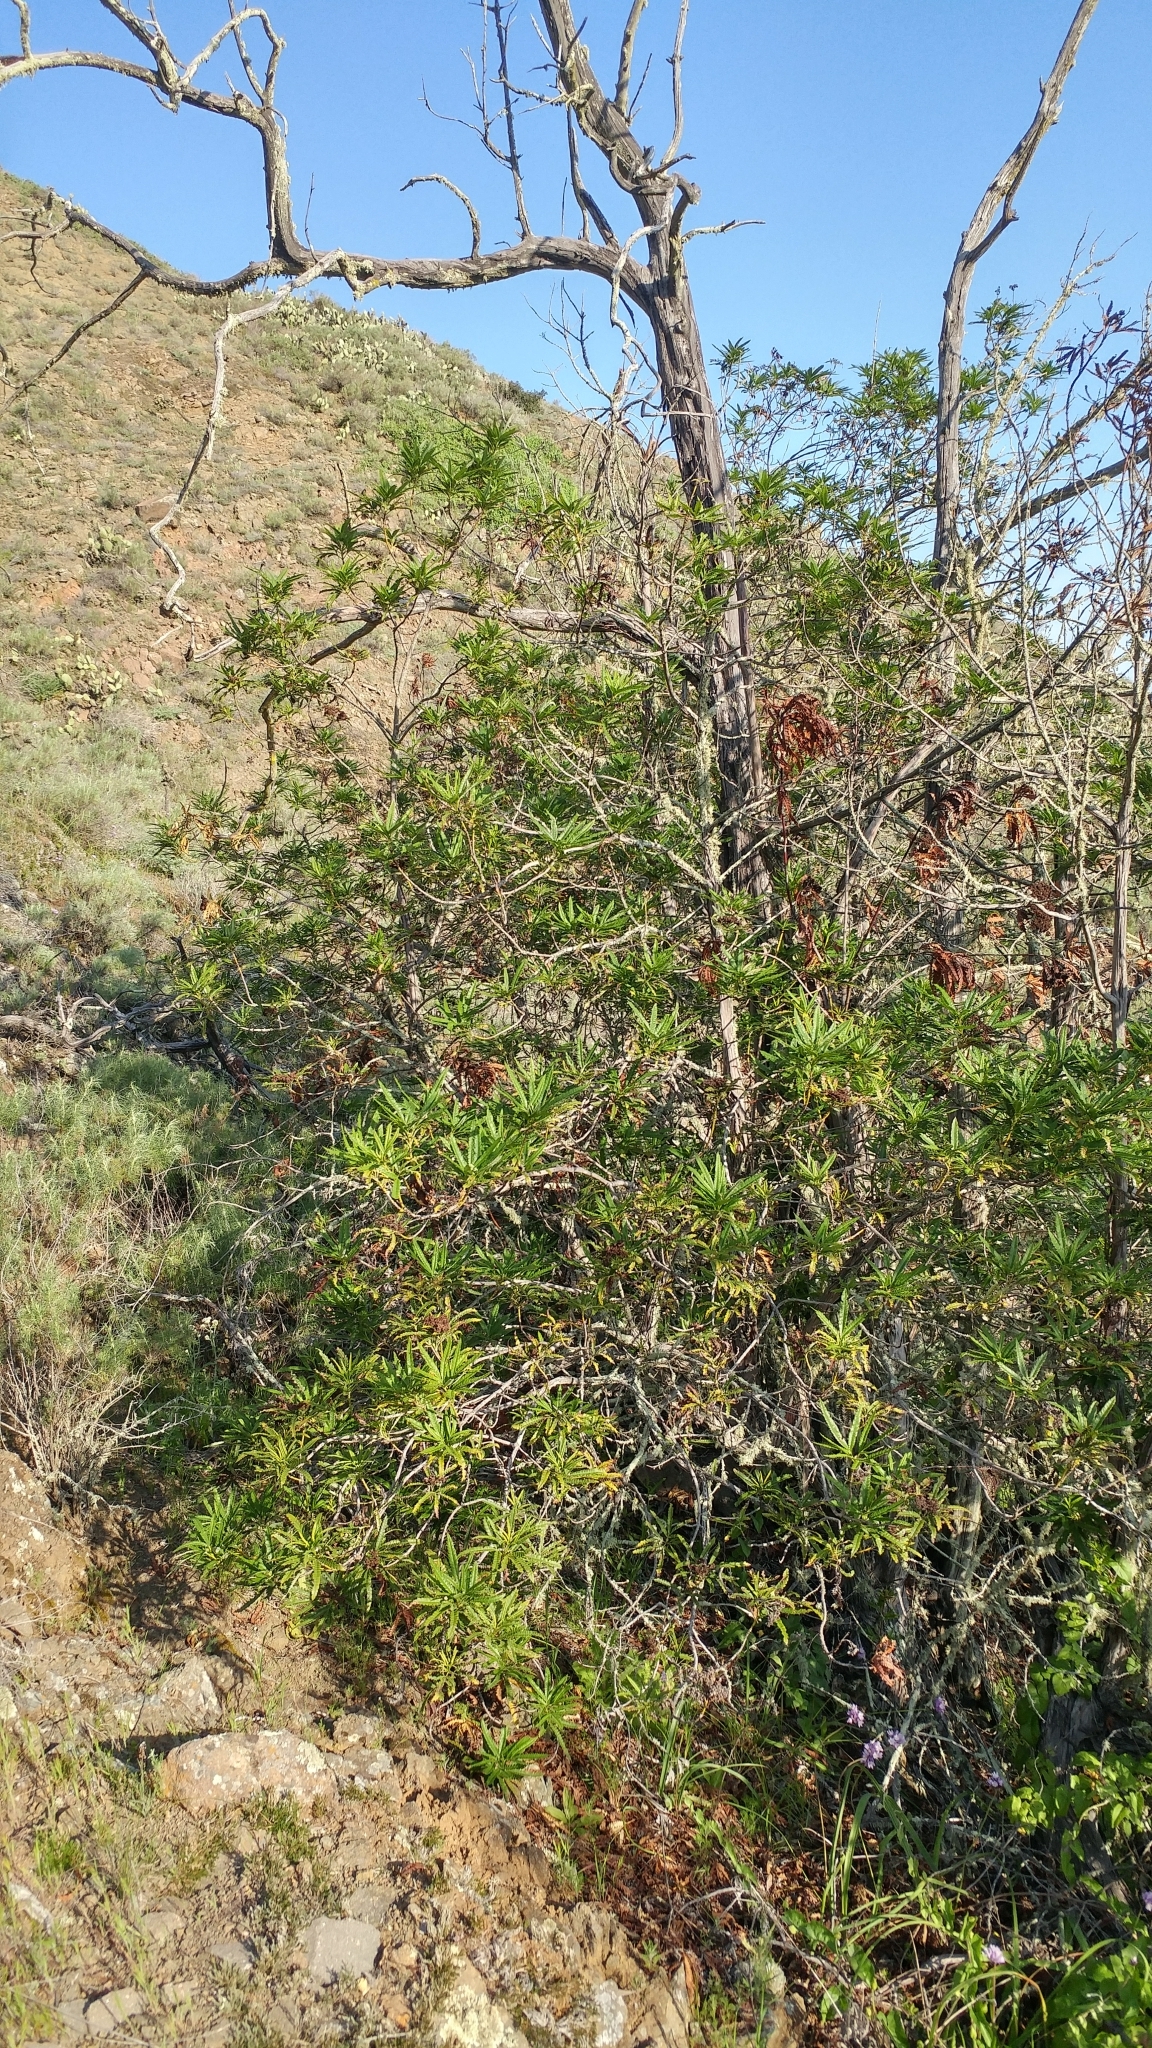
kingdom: Plantae
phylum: Tracheophyta
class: Magnoliopsida
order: Rosales
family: Rosaceae
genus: Lyonothamnus
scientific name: Lyonothamnus floribundus
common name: Catalina ironwood
